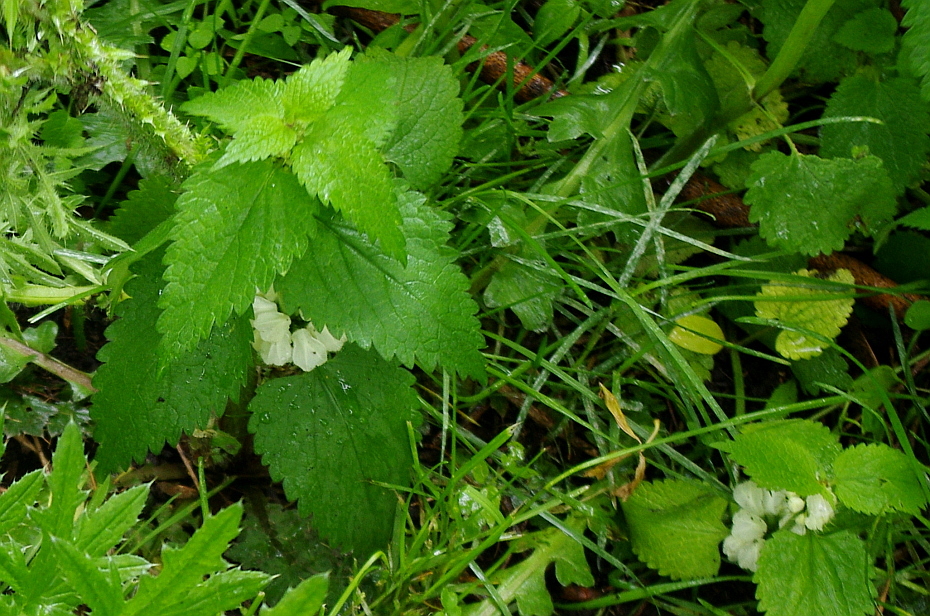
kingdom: Plantae
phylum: Tracheophyta
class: Magnoliopsida
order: Lamiales
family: Lamiaceae
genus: Lamium
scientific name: Lamium album
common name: White dead-nettle
